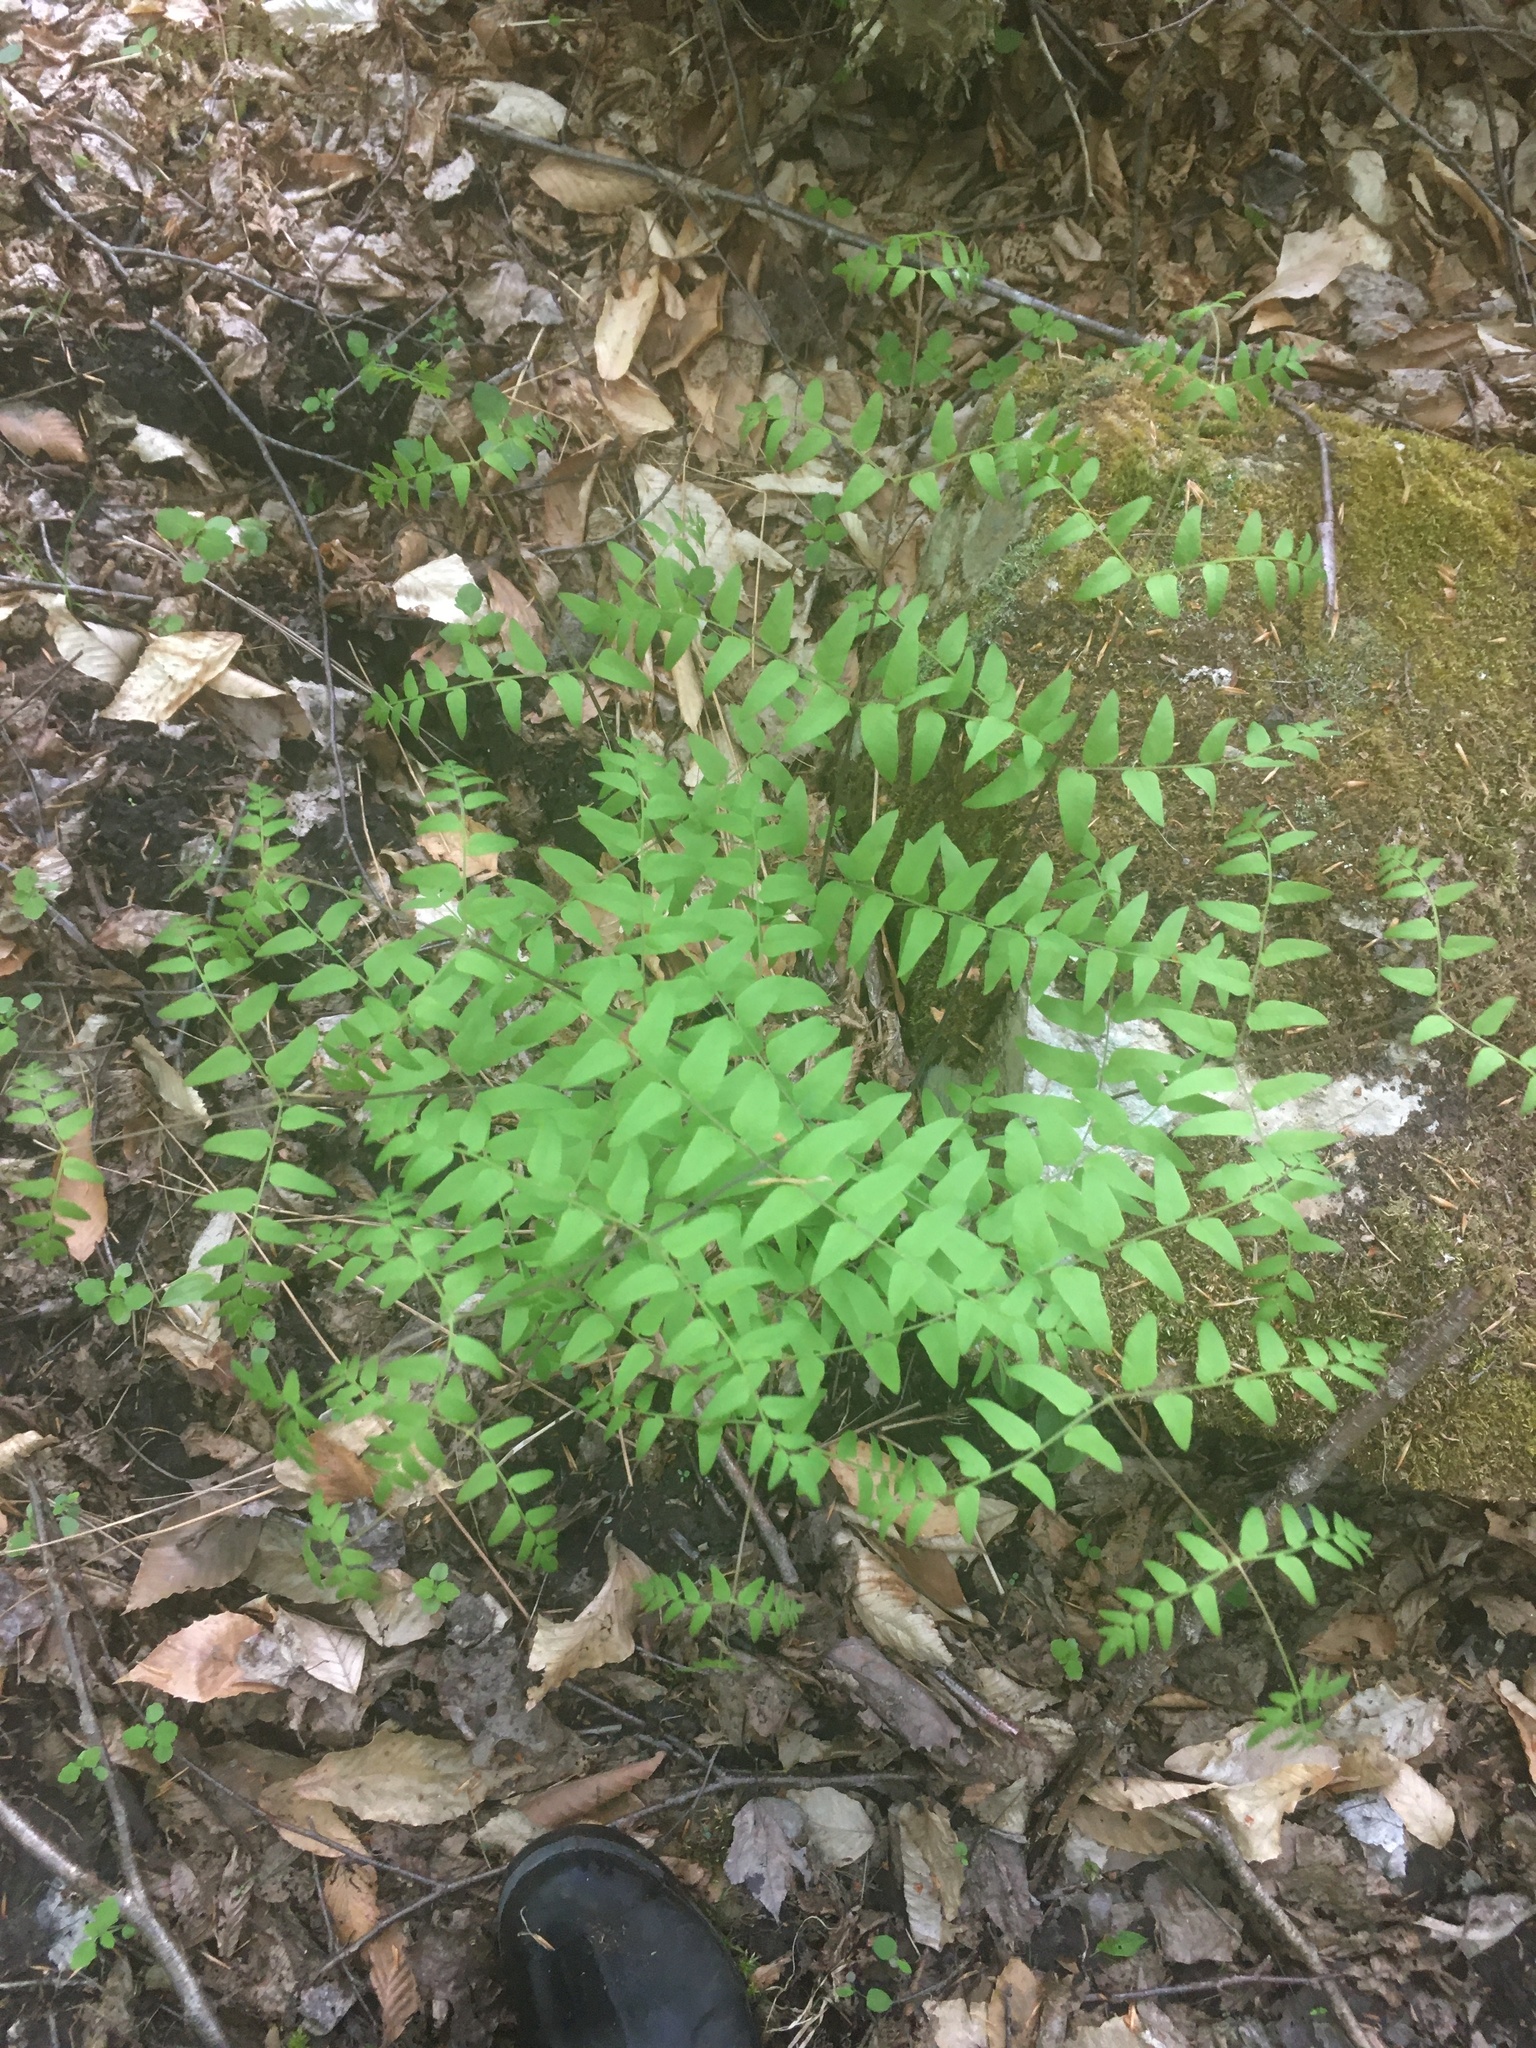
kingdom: Plantae
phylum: Tracheophyta
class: Polypodiopsida
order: Osmundales
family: Osmundaceae
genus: Osmunda
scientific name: Osmunda spectabilis
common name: American royal fern
